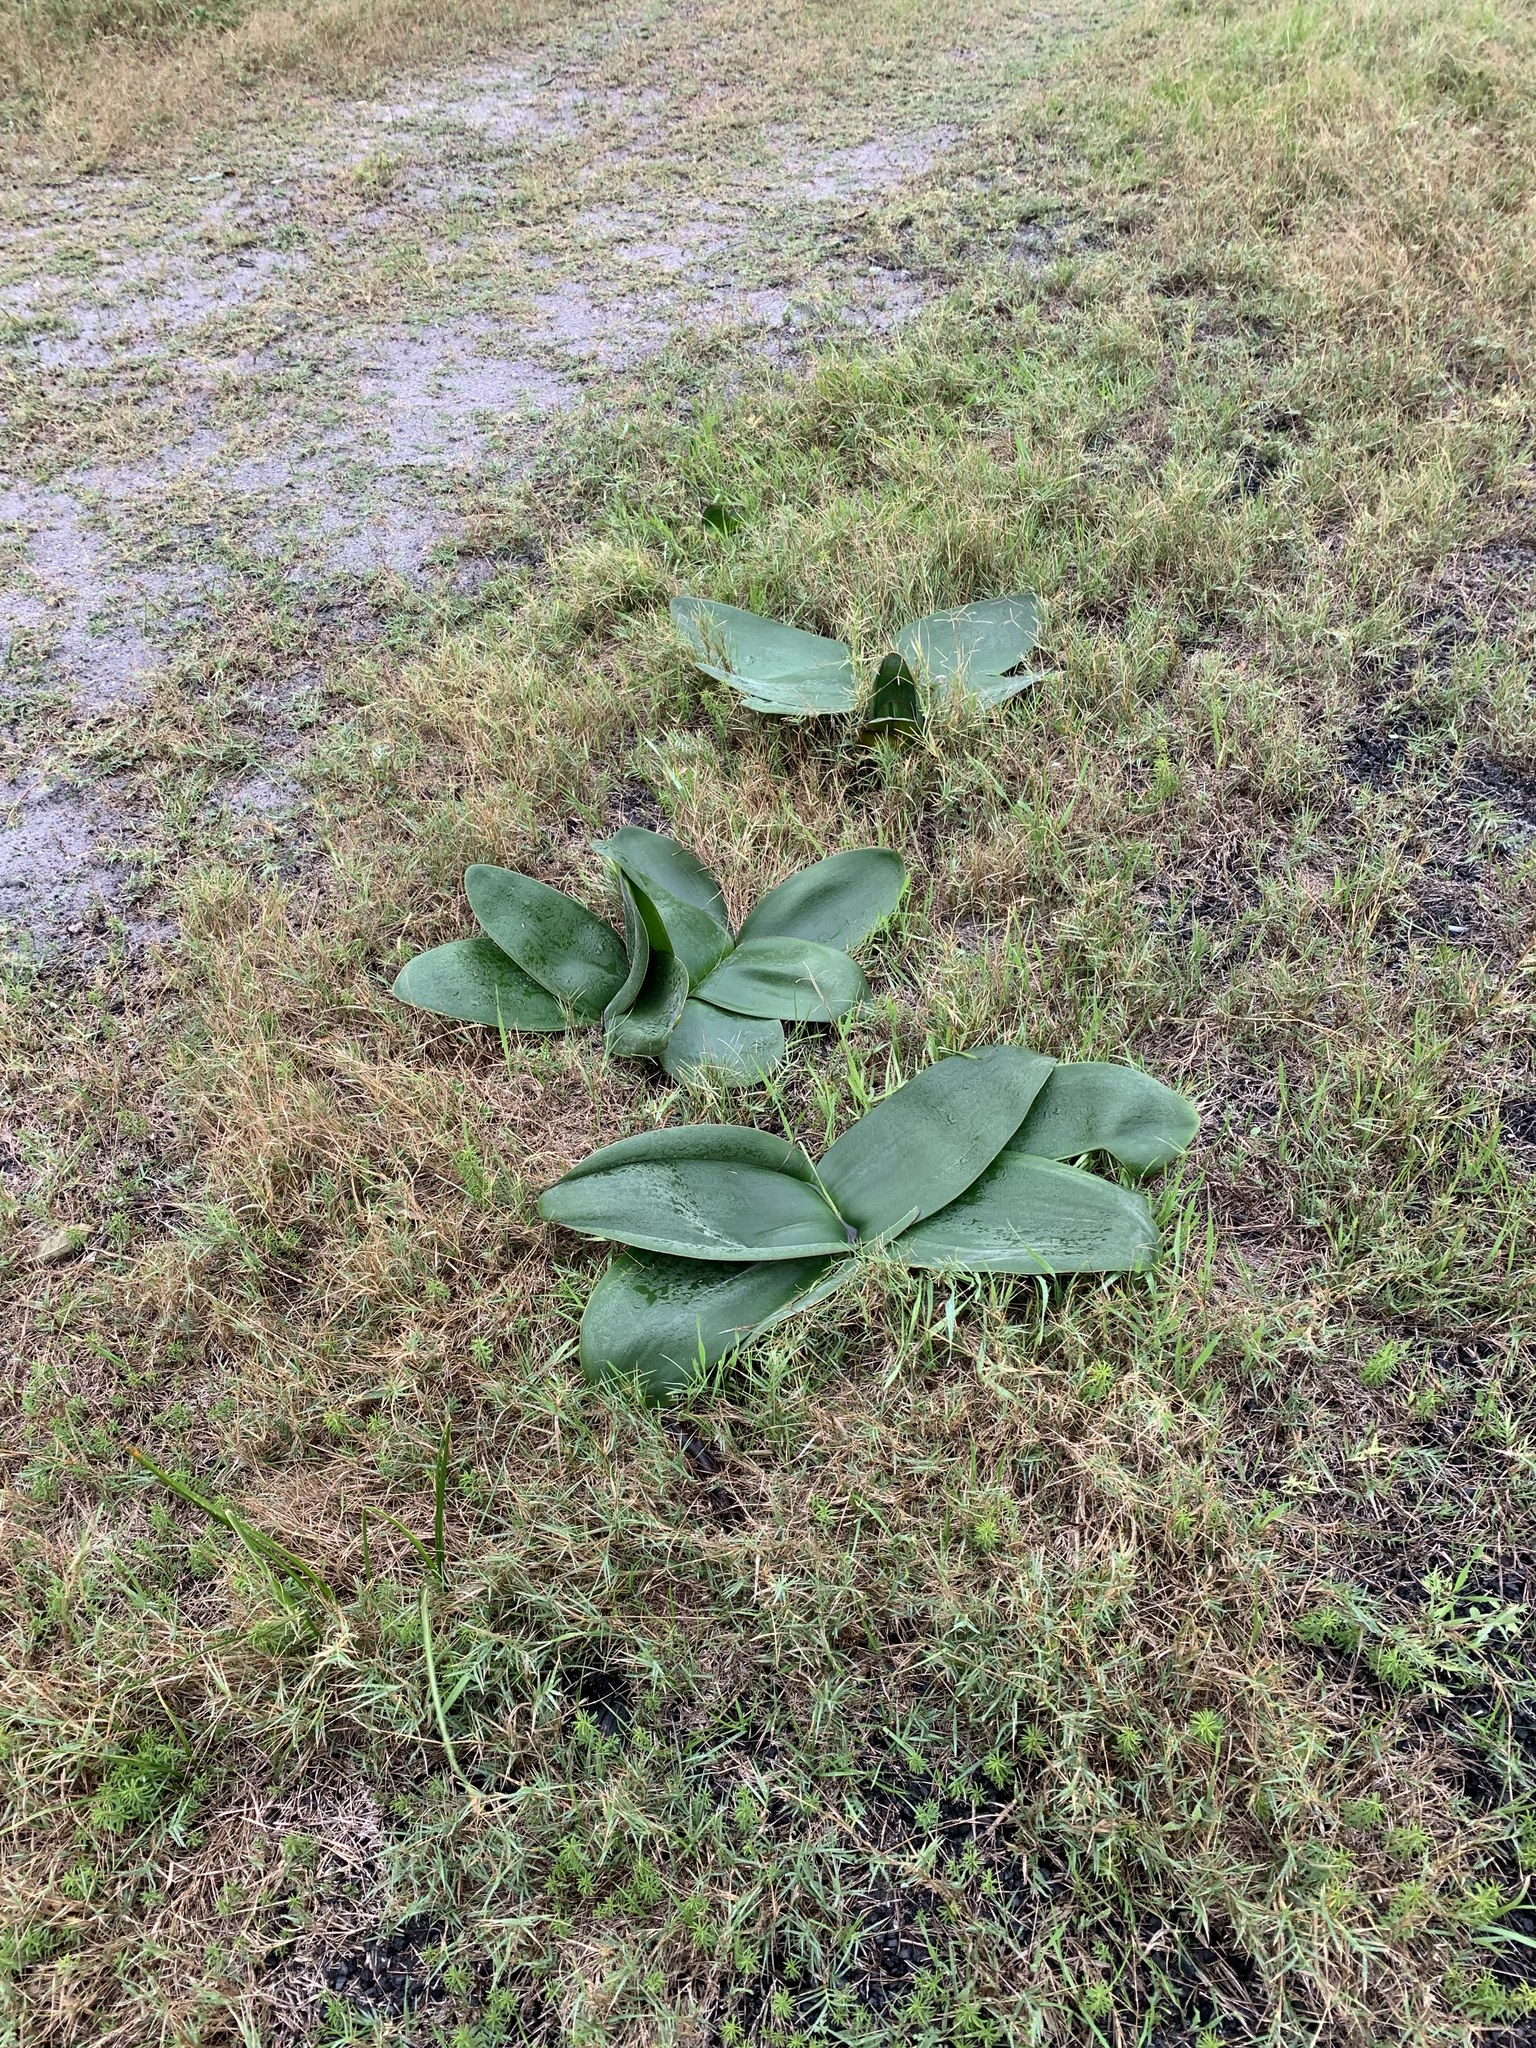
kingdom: Plantae
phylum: Tracheophyta
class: Liliopsida
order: Asparagales
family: Amaryllidaceae
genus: Brunsvigia
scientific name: Brunsvigia orientalis
